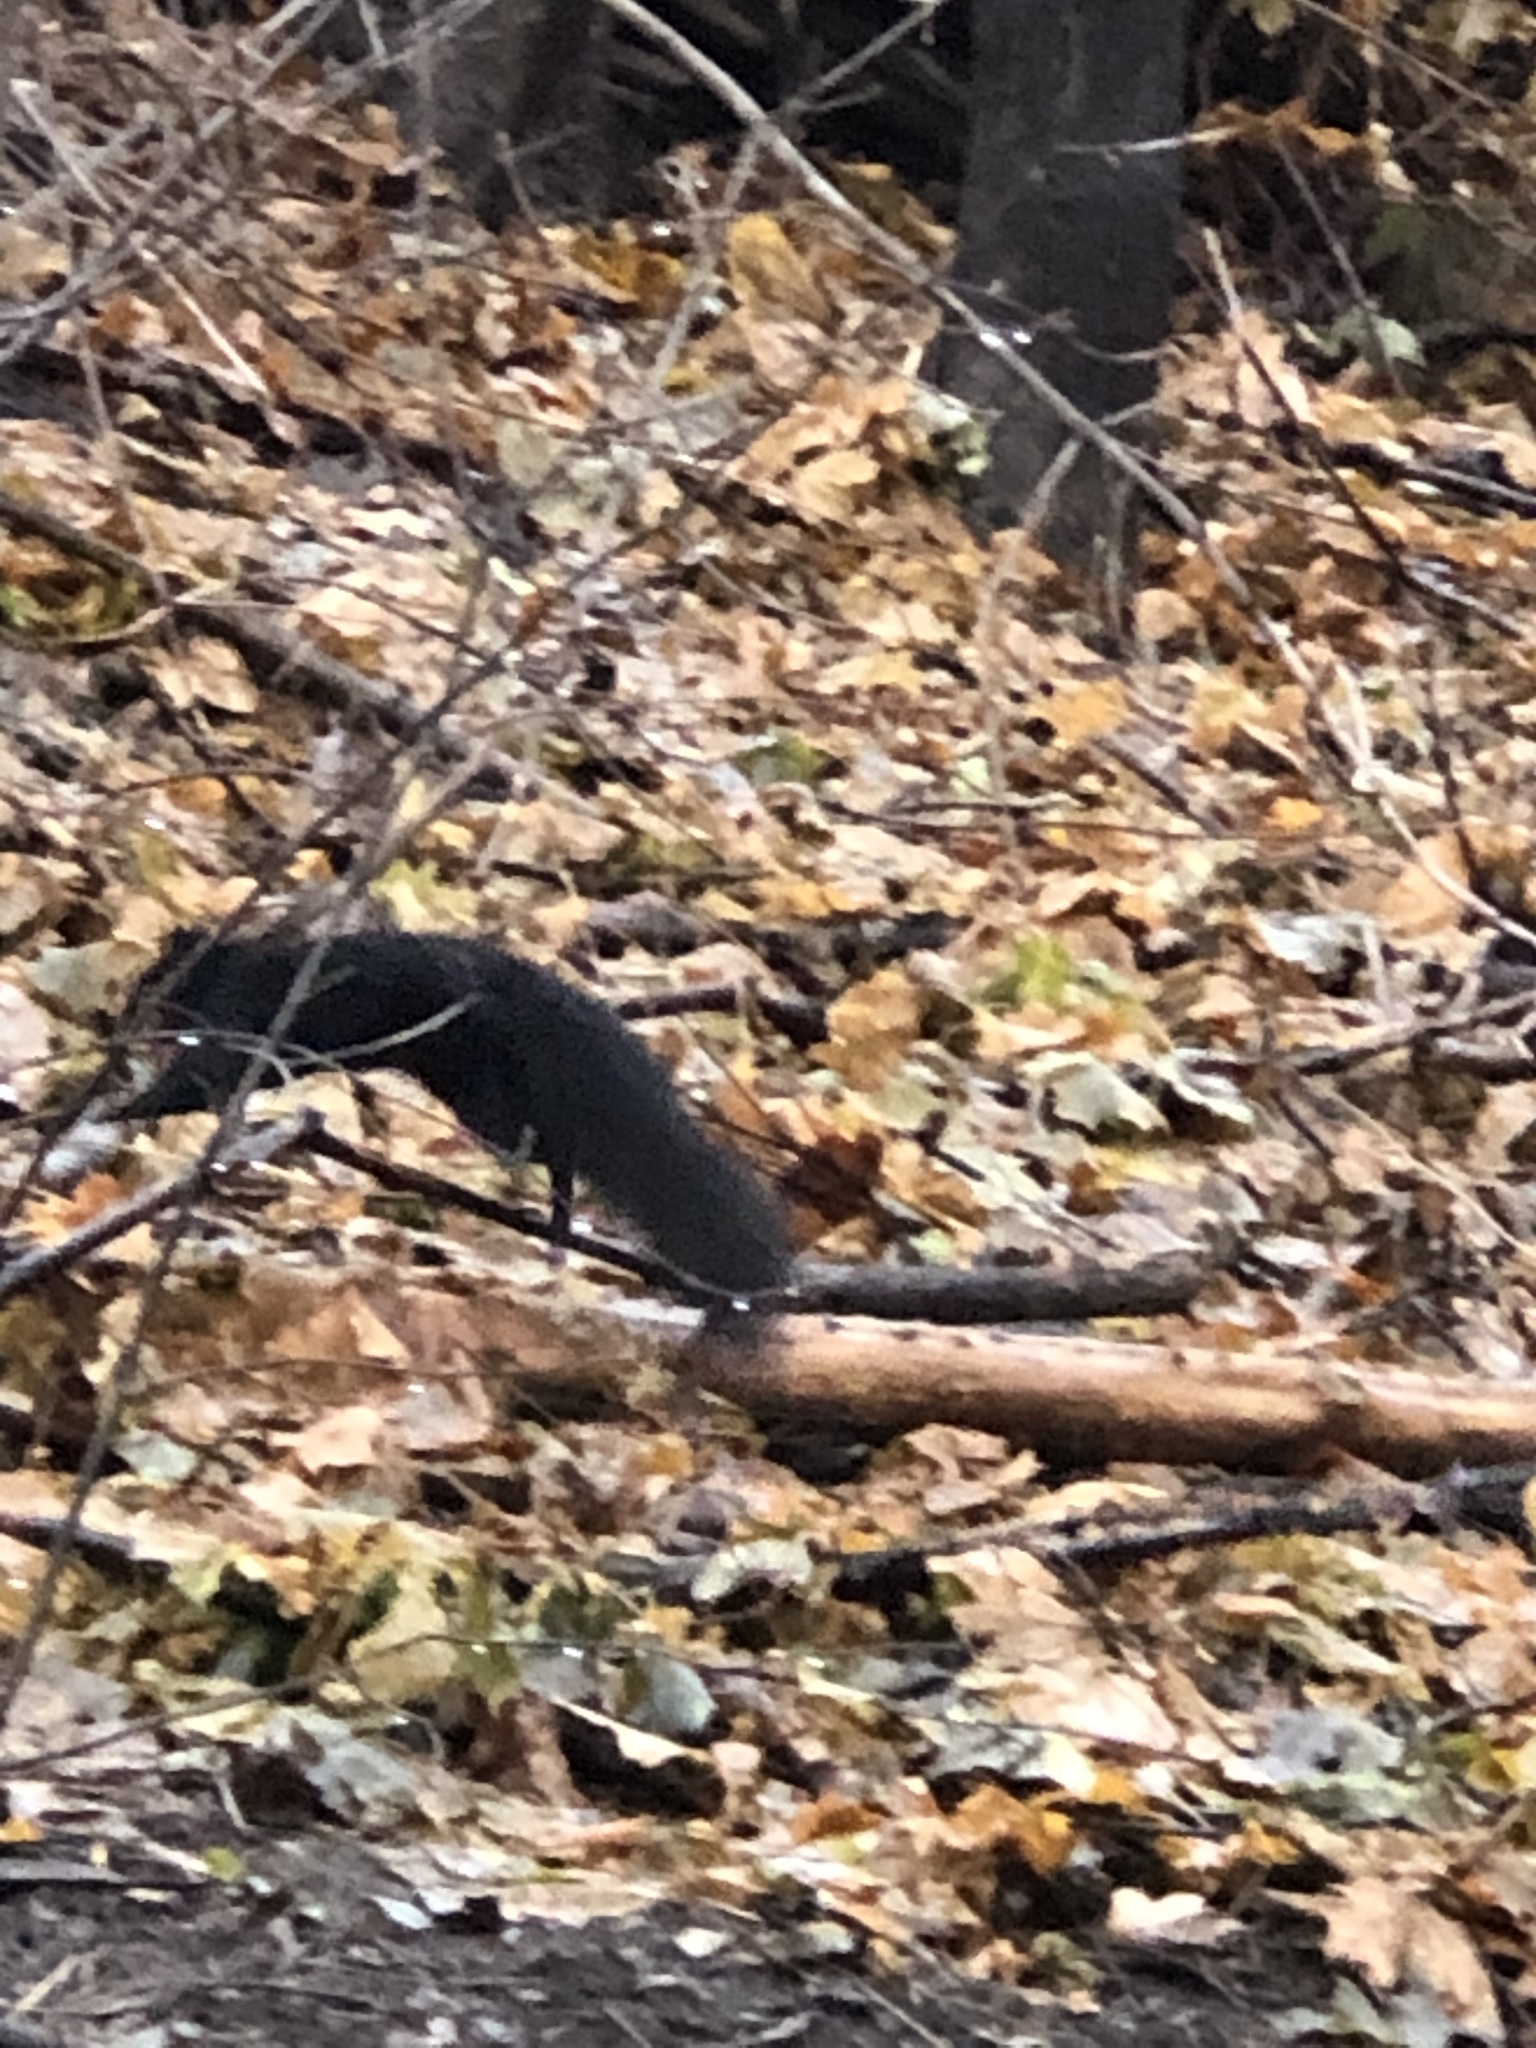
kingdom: Animalia
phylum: Chordata
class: Mammalia
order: Rodentia
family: Sciuridae
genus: Sciurus
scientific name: Sciurus carolinensis
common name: Eastern gray squirrel
